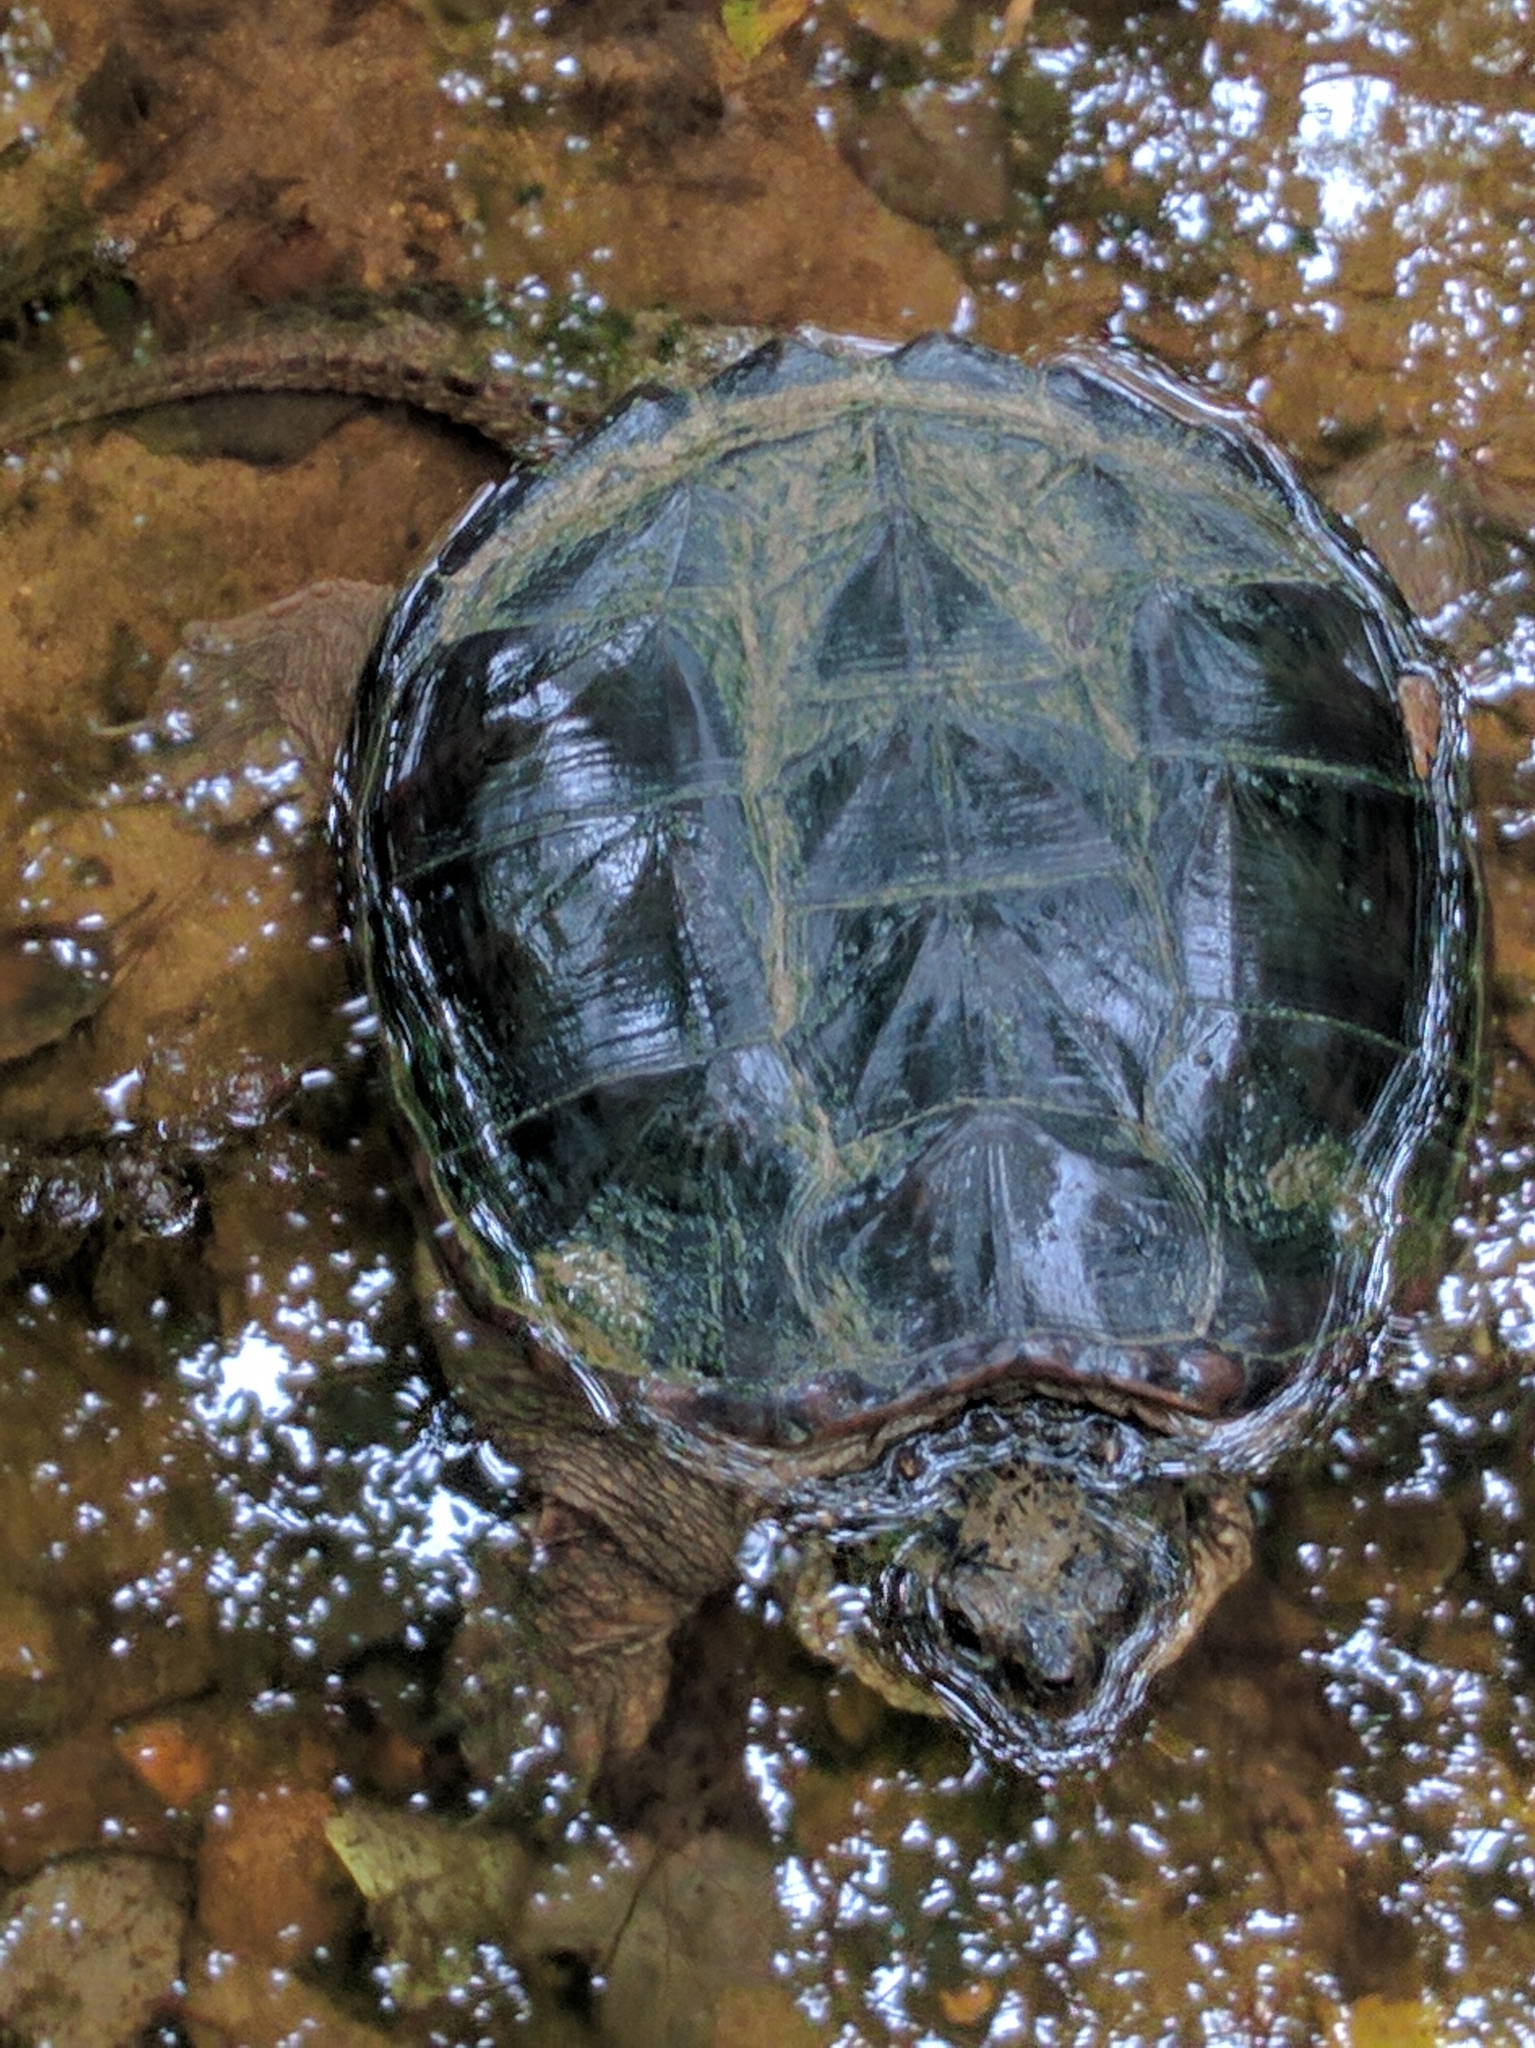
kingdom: Animalia
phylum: Chordata
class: Testudines
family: Chelydridae
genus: Chelydra
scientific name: Chelydra serpentina
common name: Common snapping turtle
